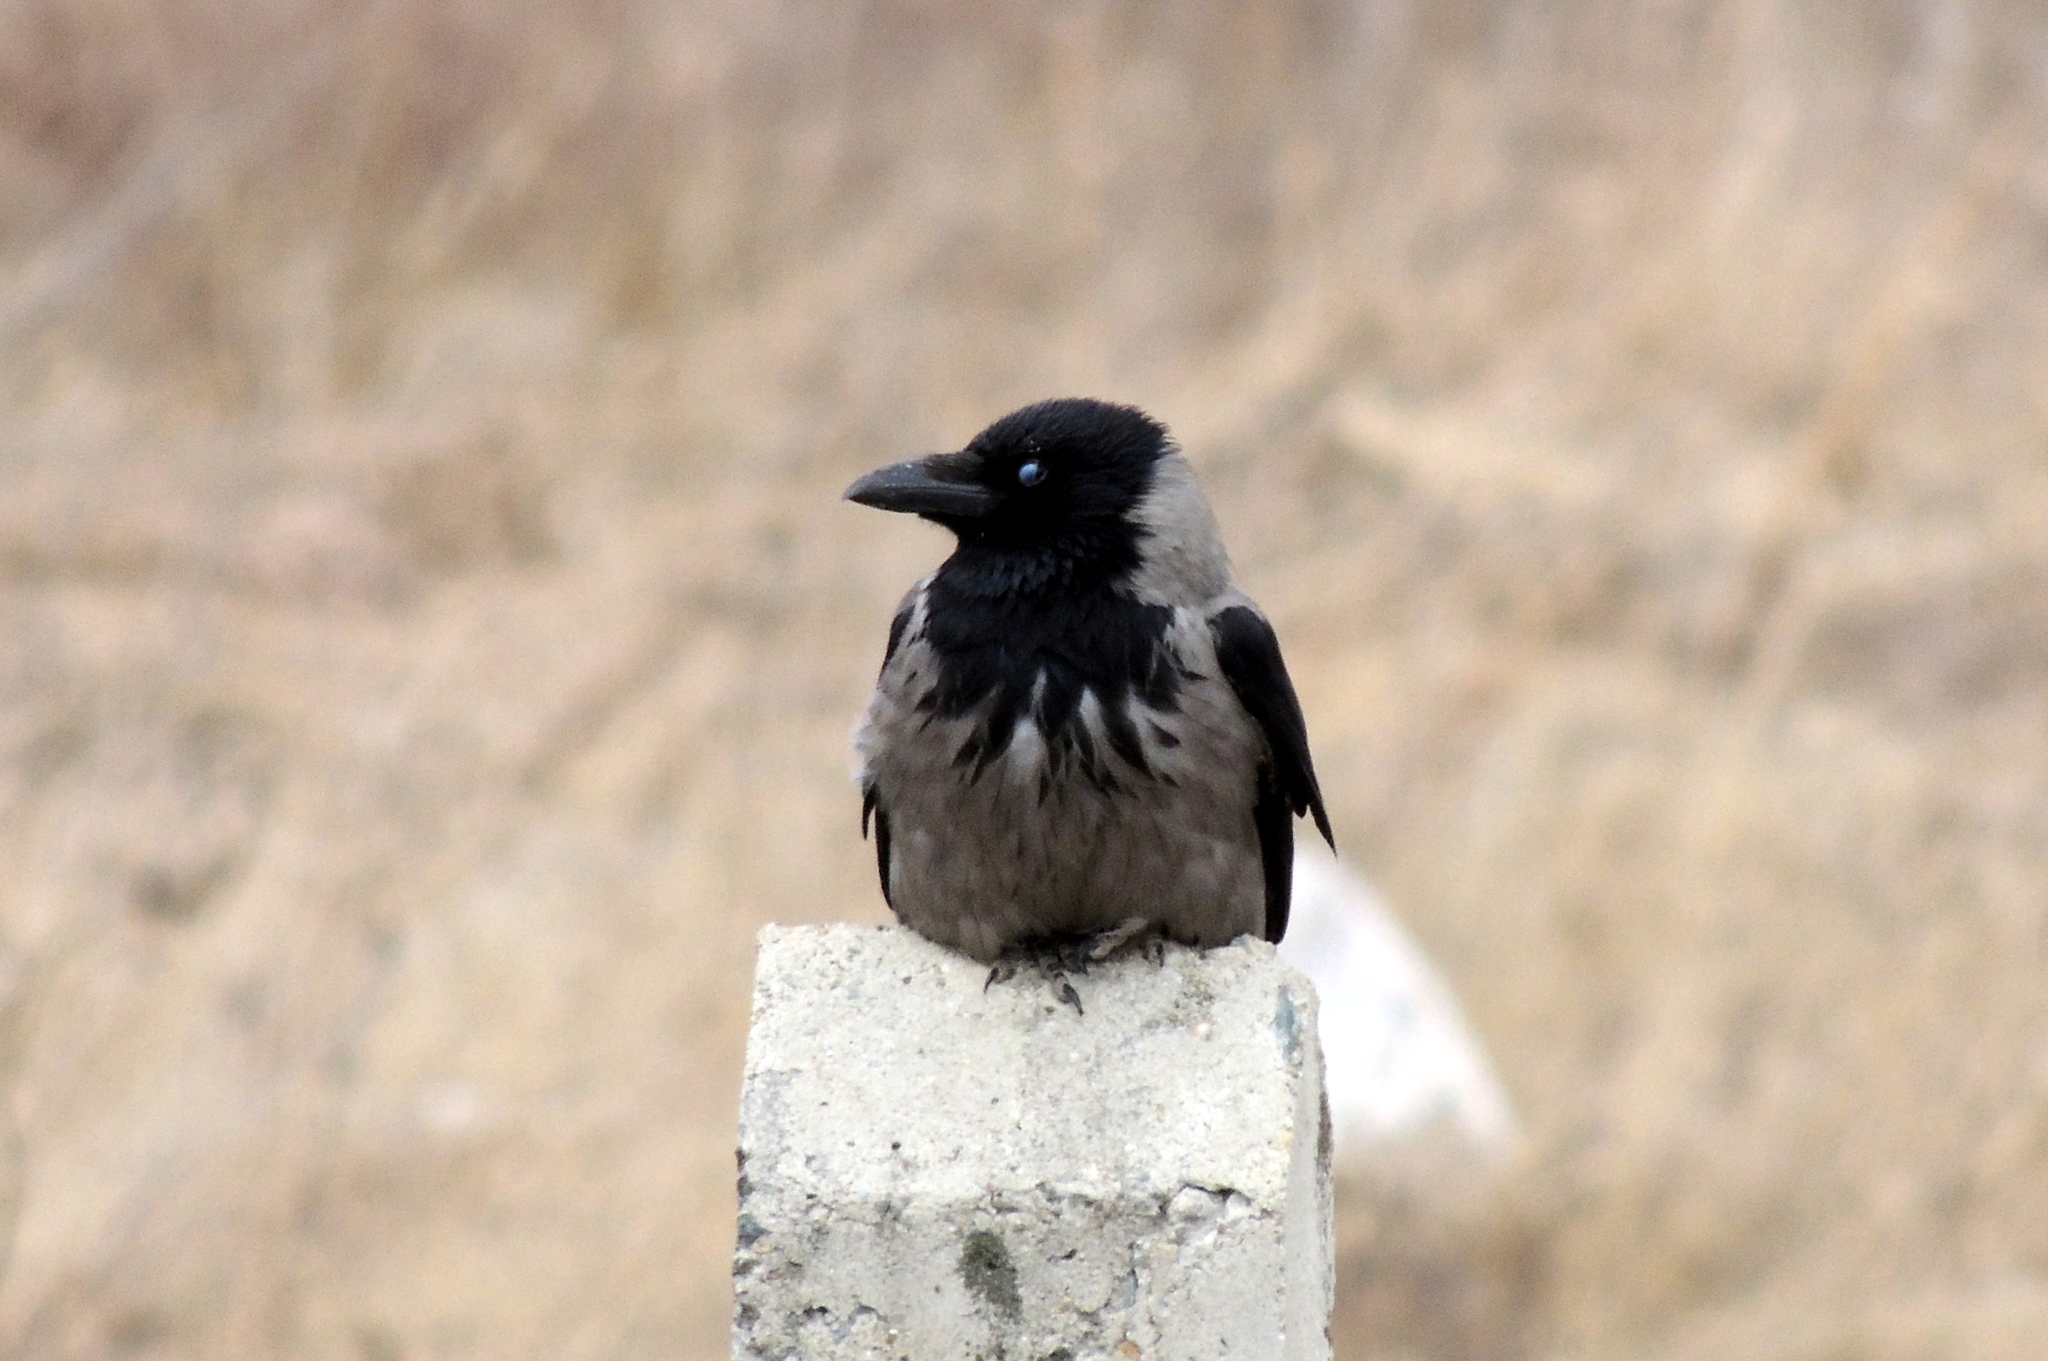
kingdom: Animalia
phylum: Chordata
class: Aves
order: Passeriformes
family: Corvidae
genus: Corvus
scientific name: Corvus cornix
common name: Hooded crow
